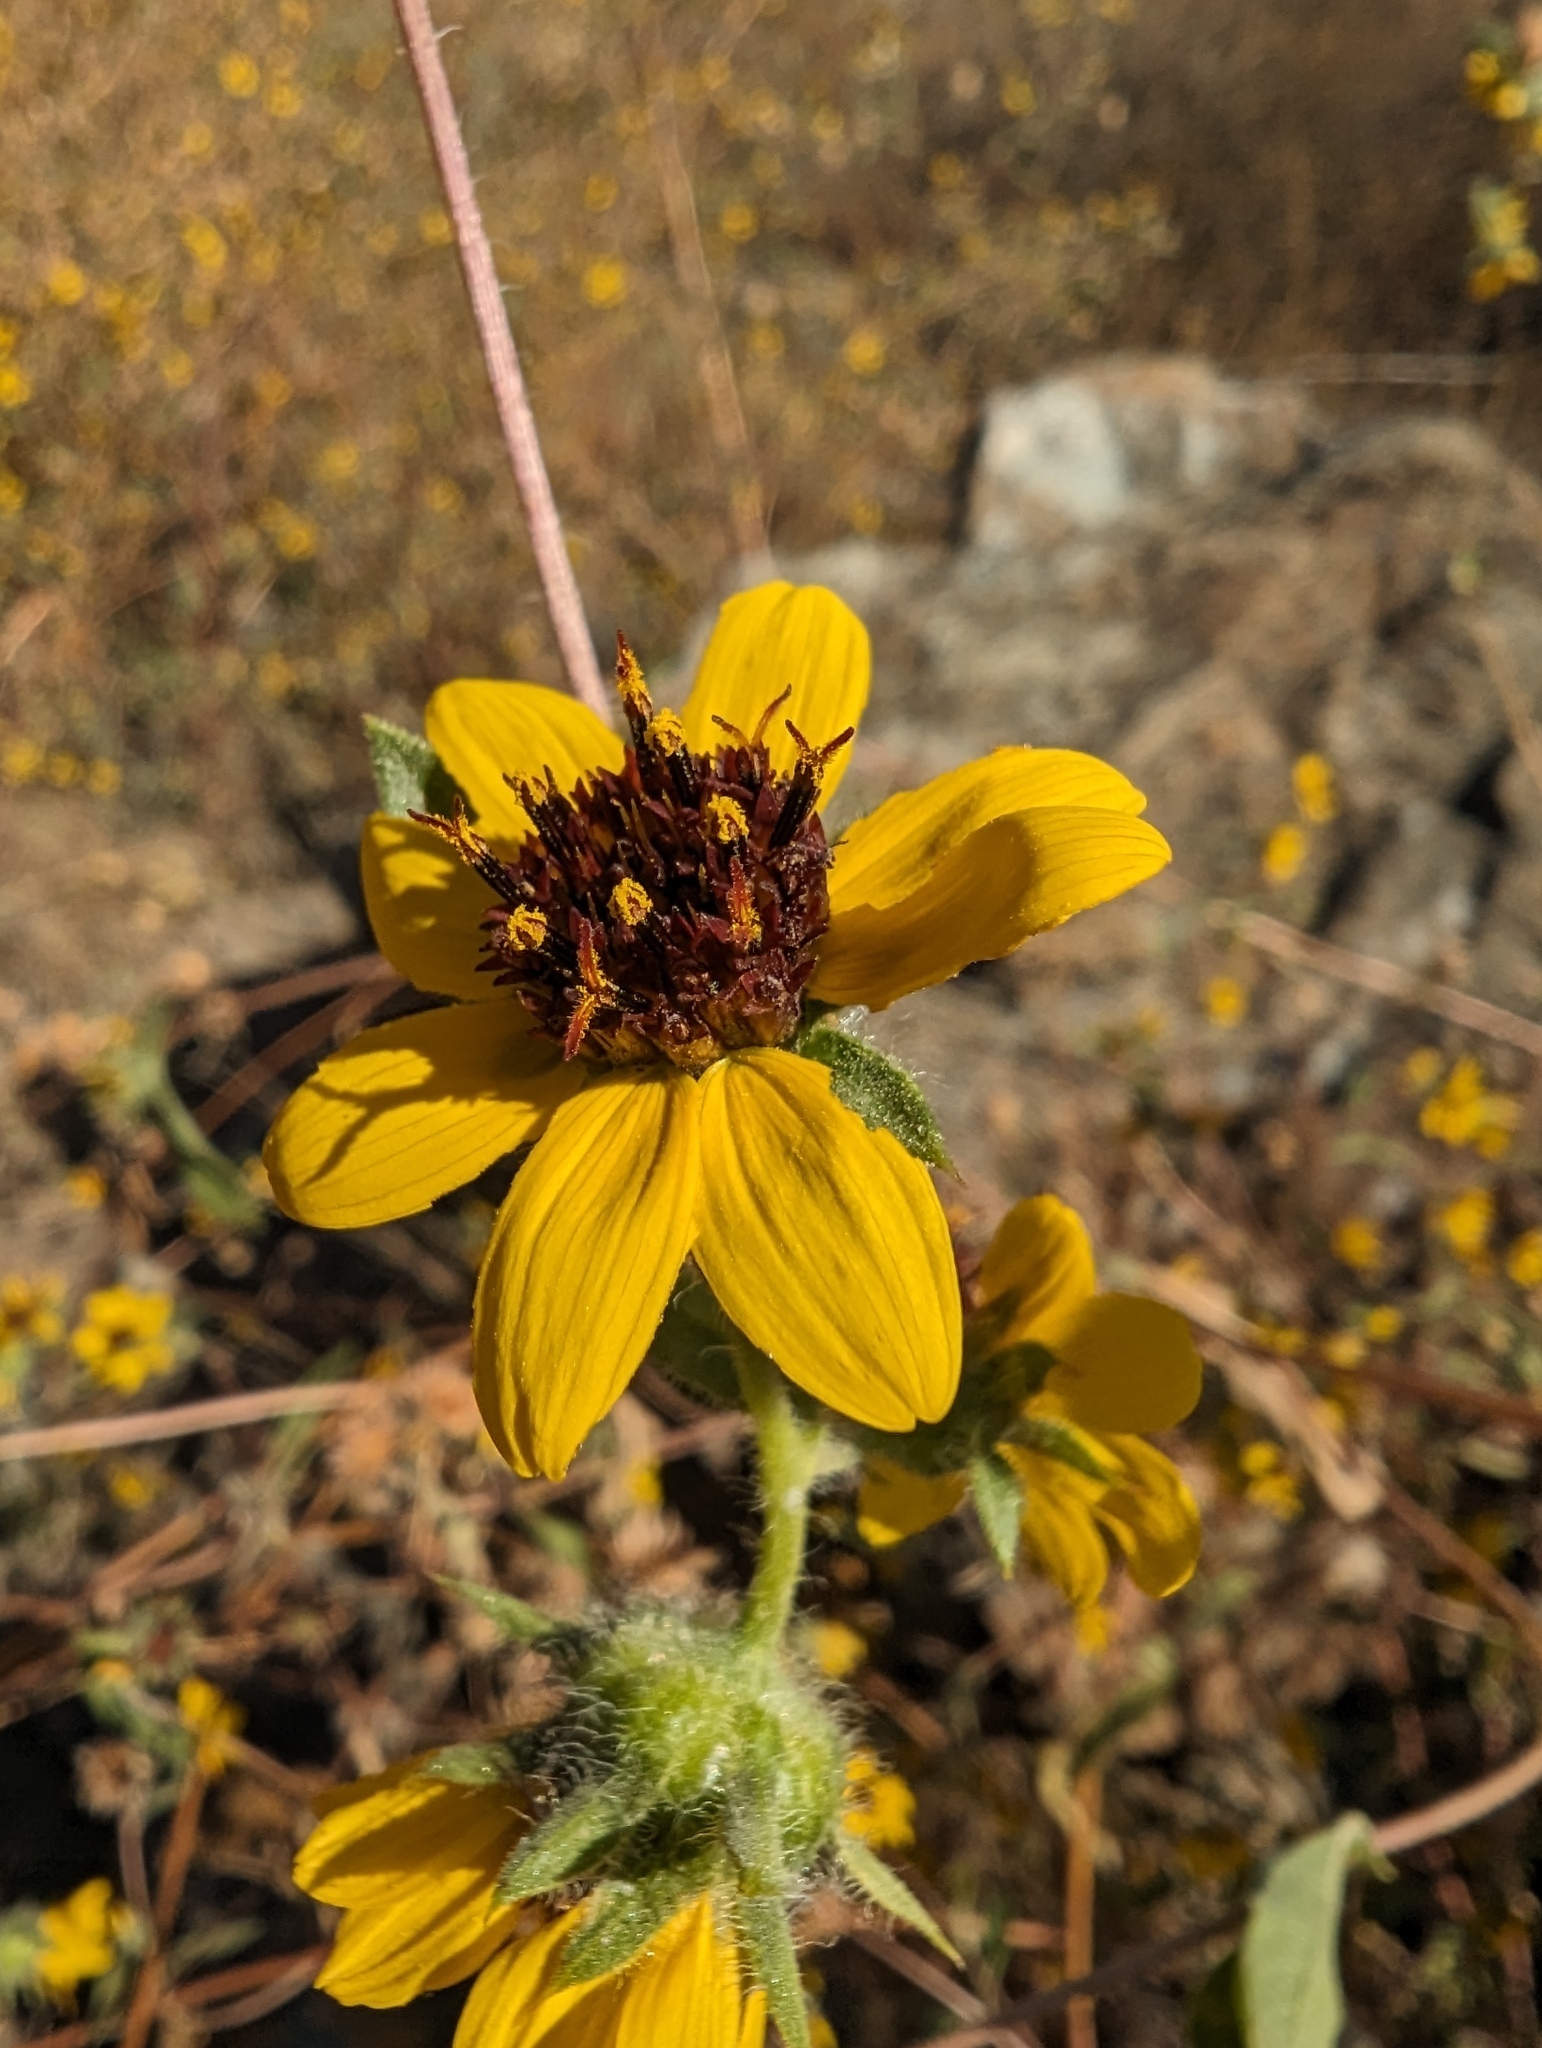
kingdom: Plantae
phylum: Tracheophyta
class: Magnoliopsida
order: Asterales
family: Asteraceae
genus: Helianthus
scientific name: Helianthus exilis
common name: Serpentine sunflower
